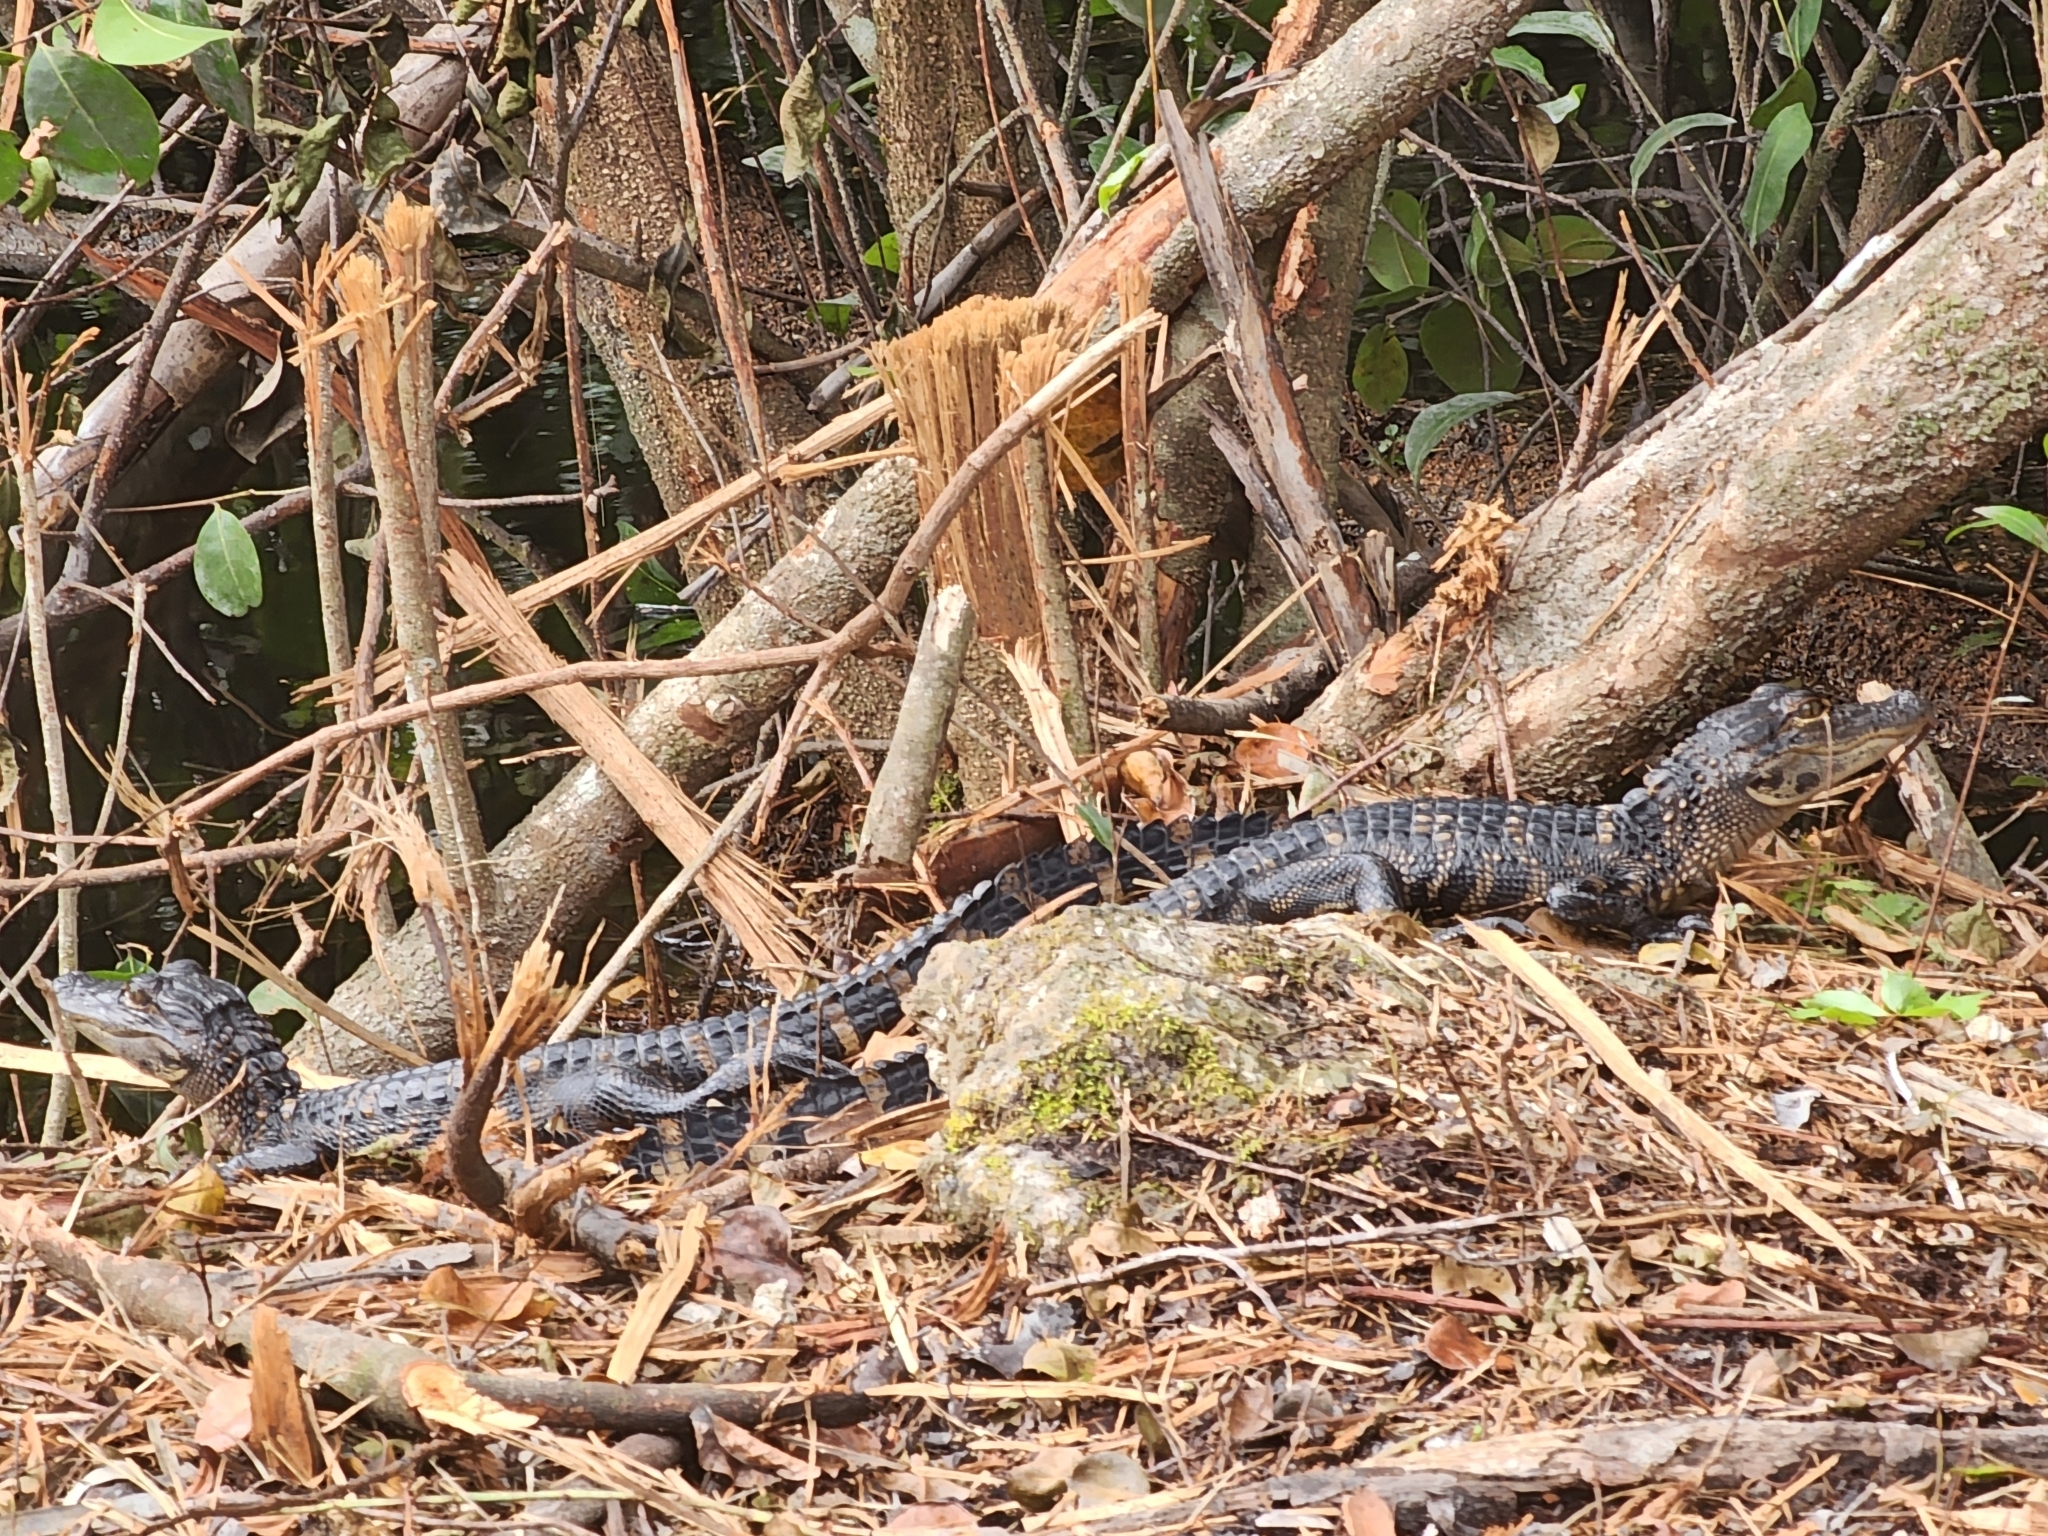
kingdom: Animalia
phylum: Chordata
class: Crocodylia
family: Alligatoridae
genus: Alligator
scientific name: Alligator mississippiensis
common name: American alligator
